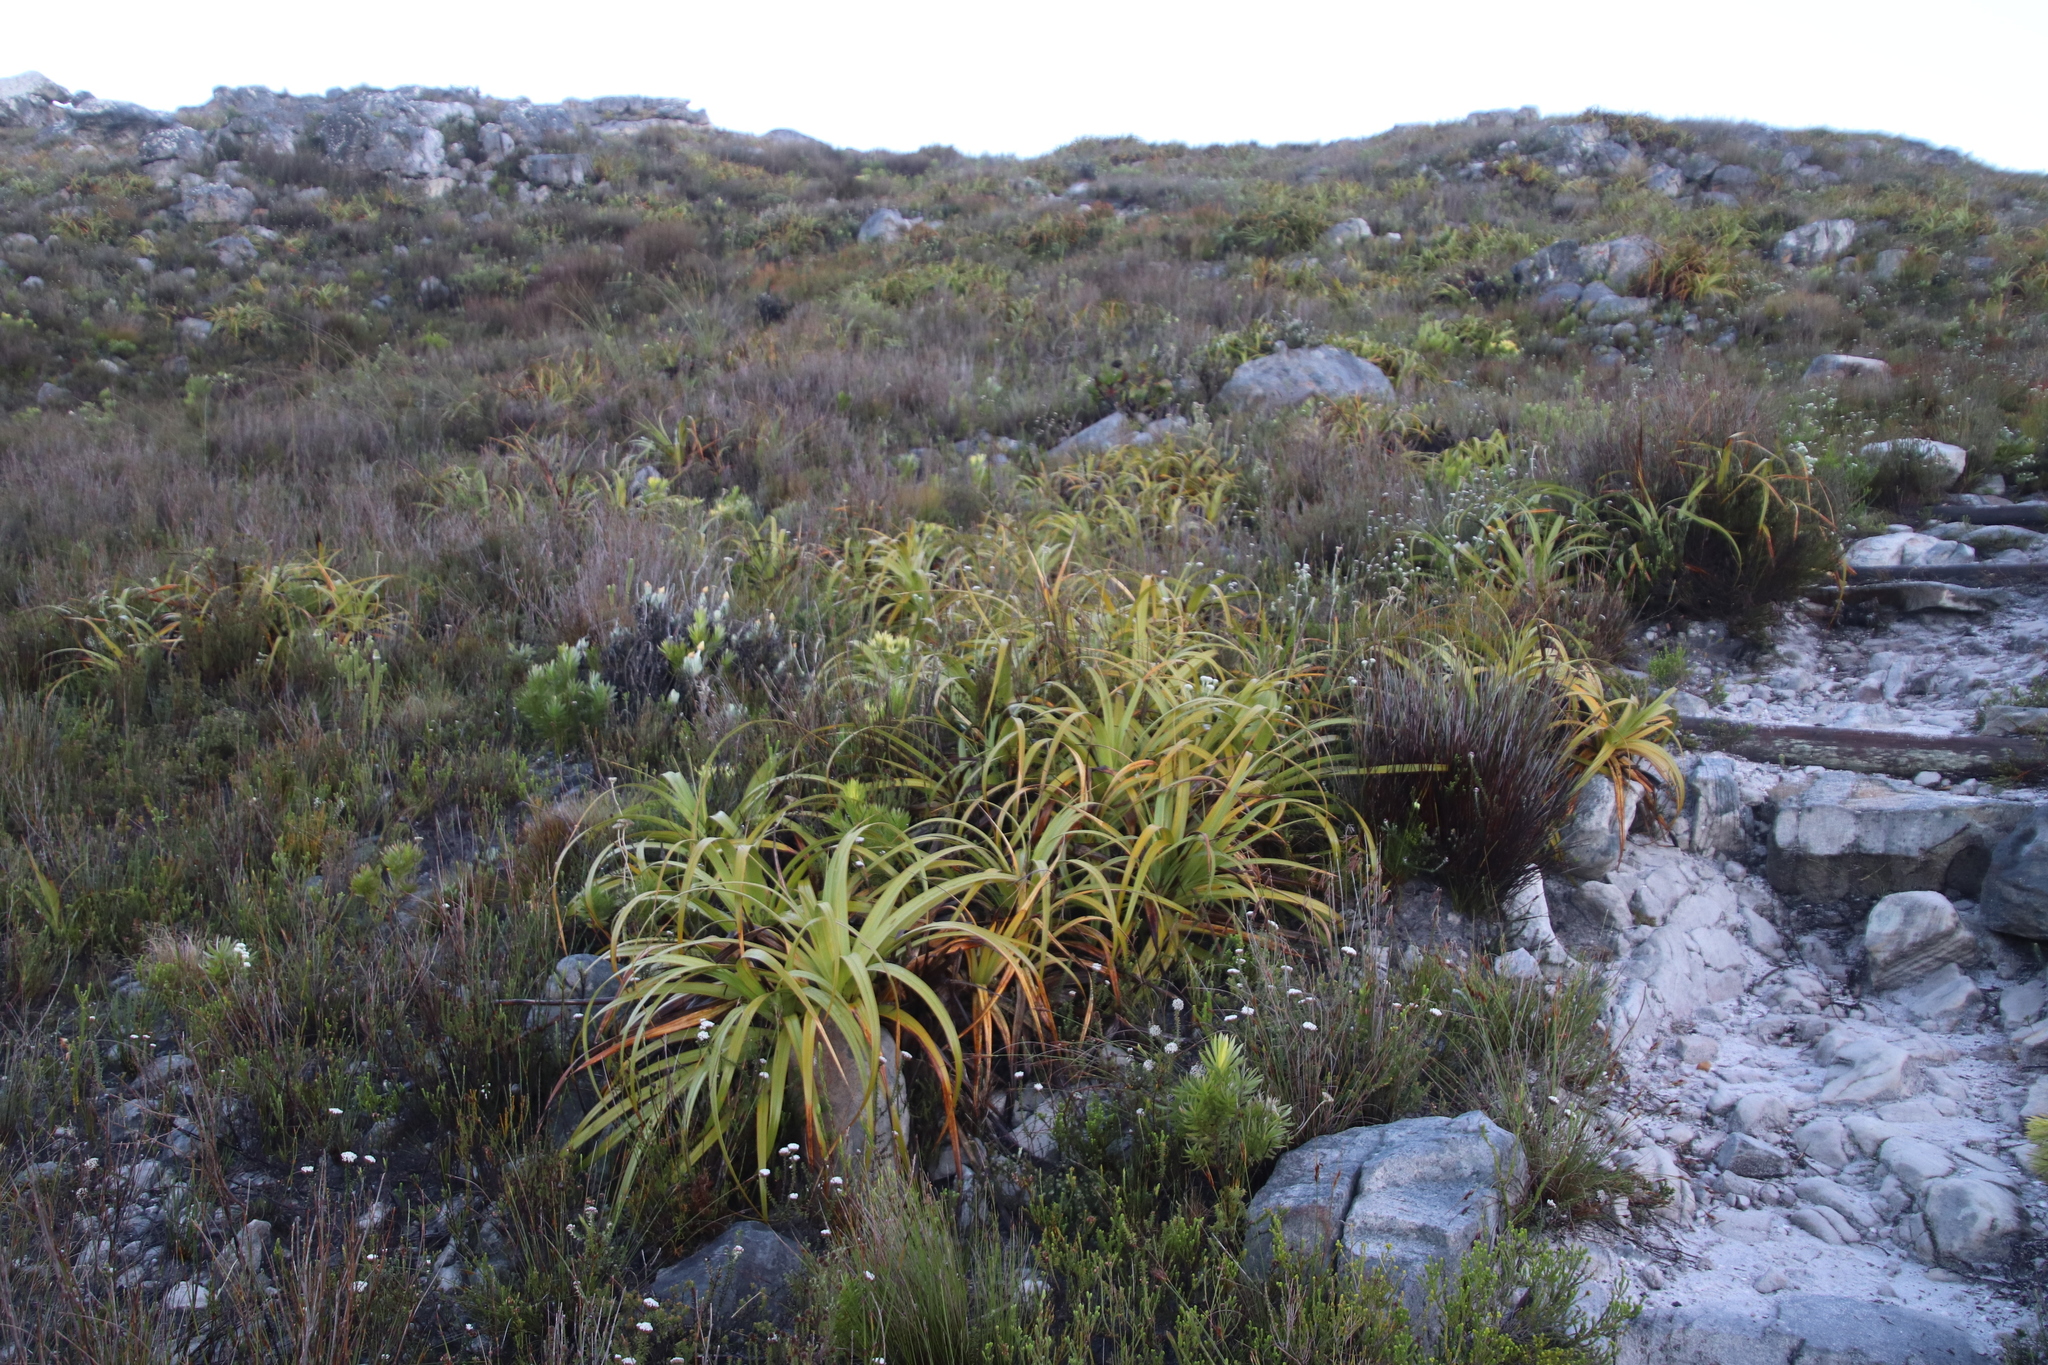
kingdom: Plantae
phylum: Tracheophyta
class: Liliopsida
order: Poales
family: Cyperaceae
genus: Tetraria
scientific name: Tetraria thermalis
